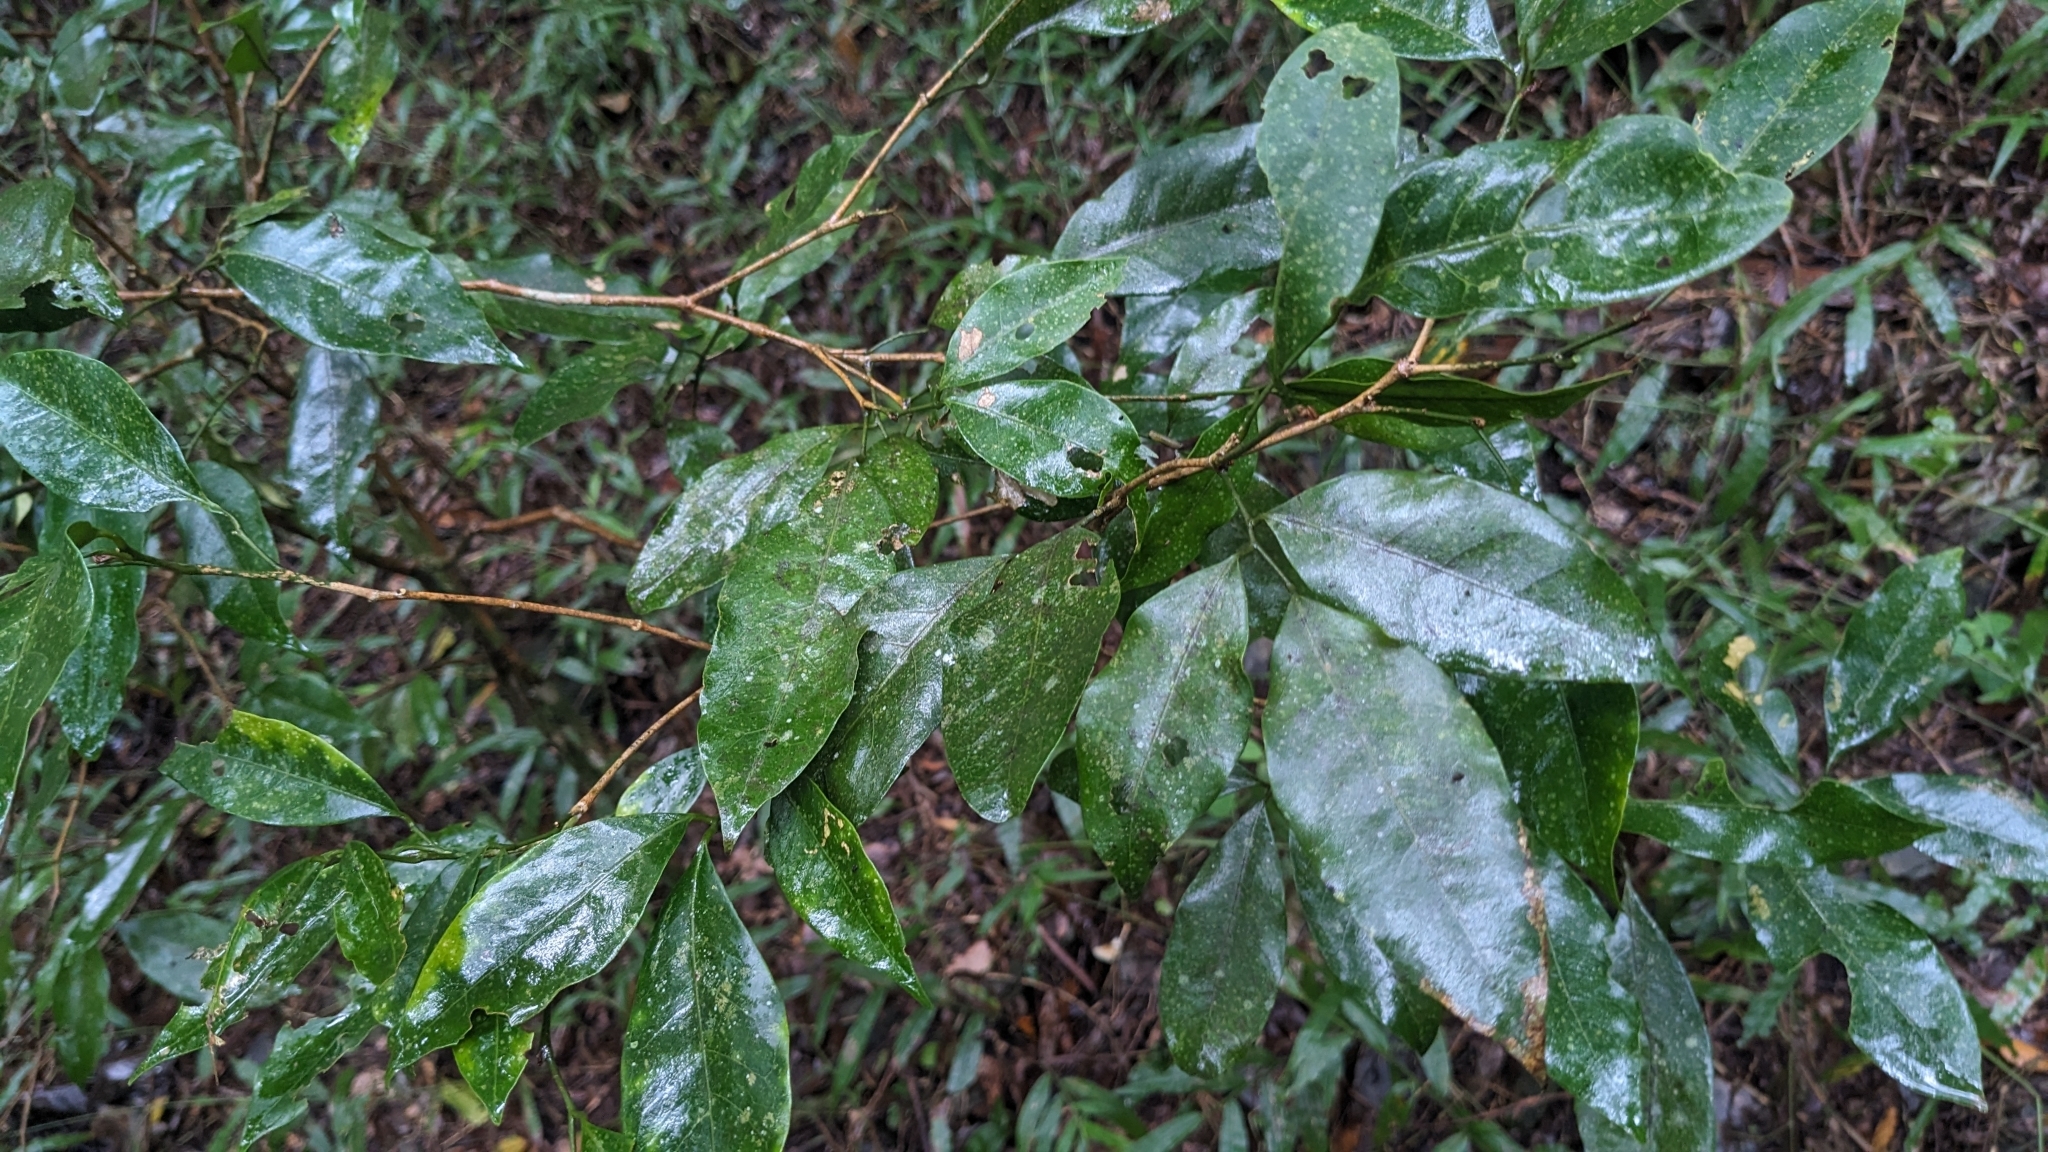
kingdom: Plantae
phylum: Tracheophyta
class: Magnoliopsida
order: Sapindales
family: Rutaceae
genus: Glycosmis
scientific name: Glycosmis parviflora
